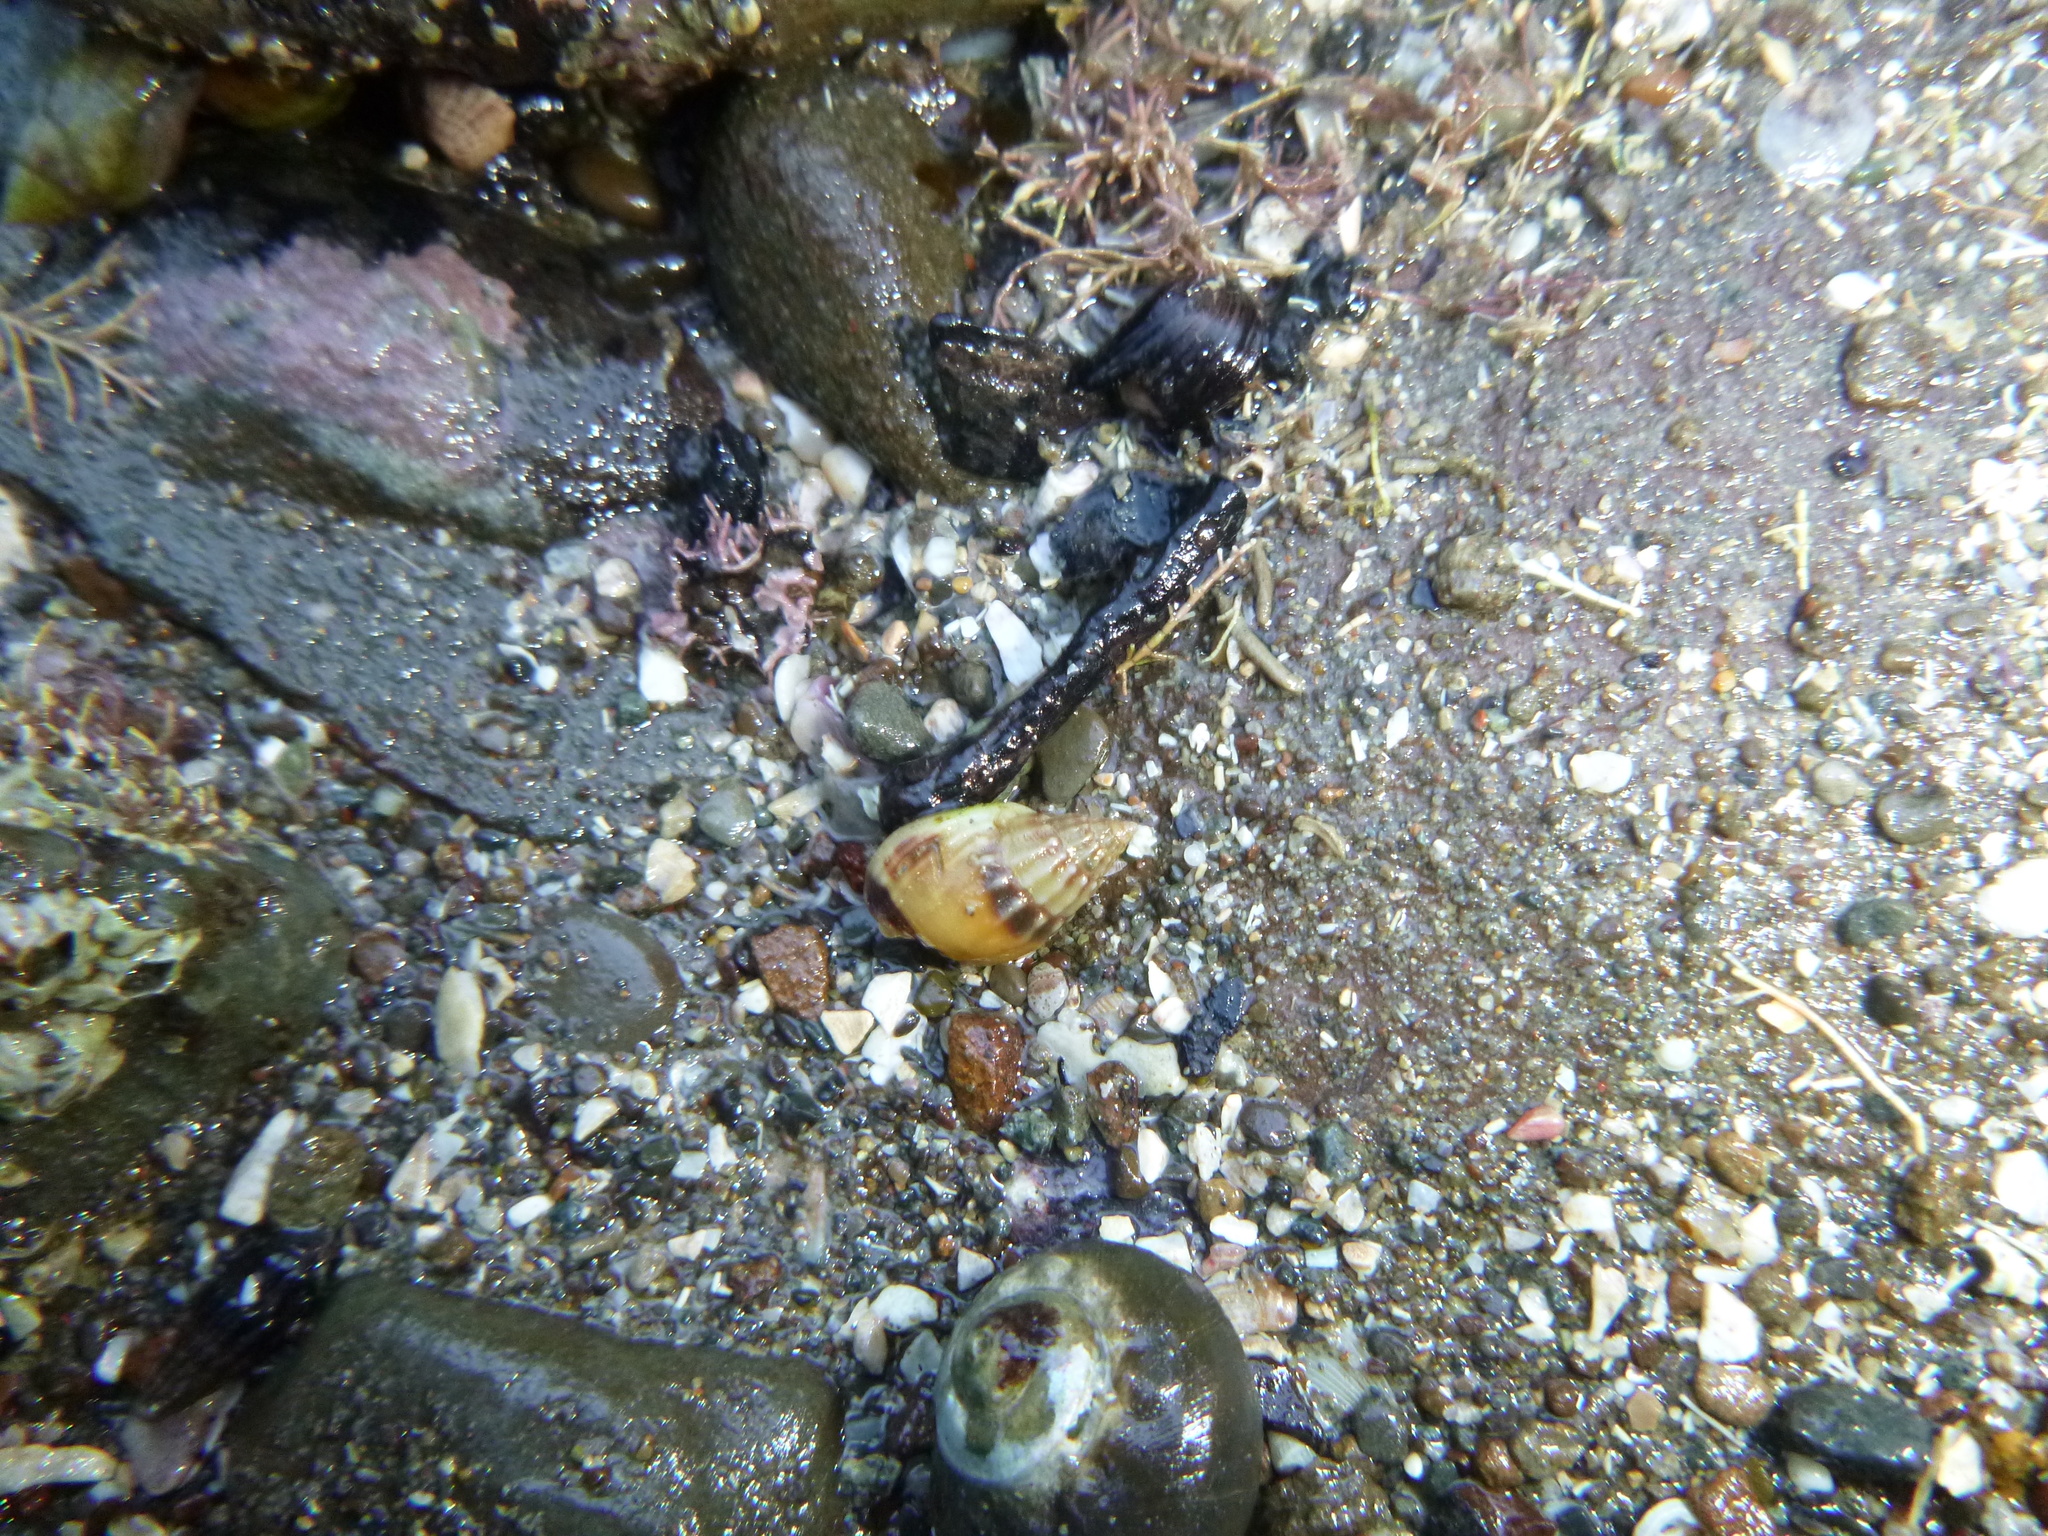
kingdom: Animalia
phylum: Mollusca
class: Gastropoda
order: Neogastropoda
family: Nassariidae
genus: Tritia
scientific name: Tritia burchardi
